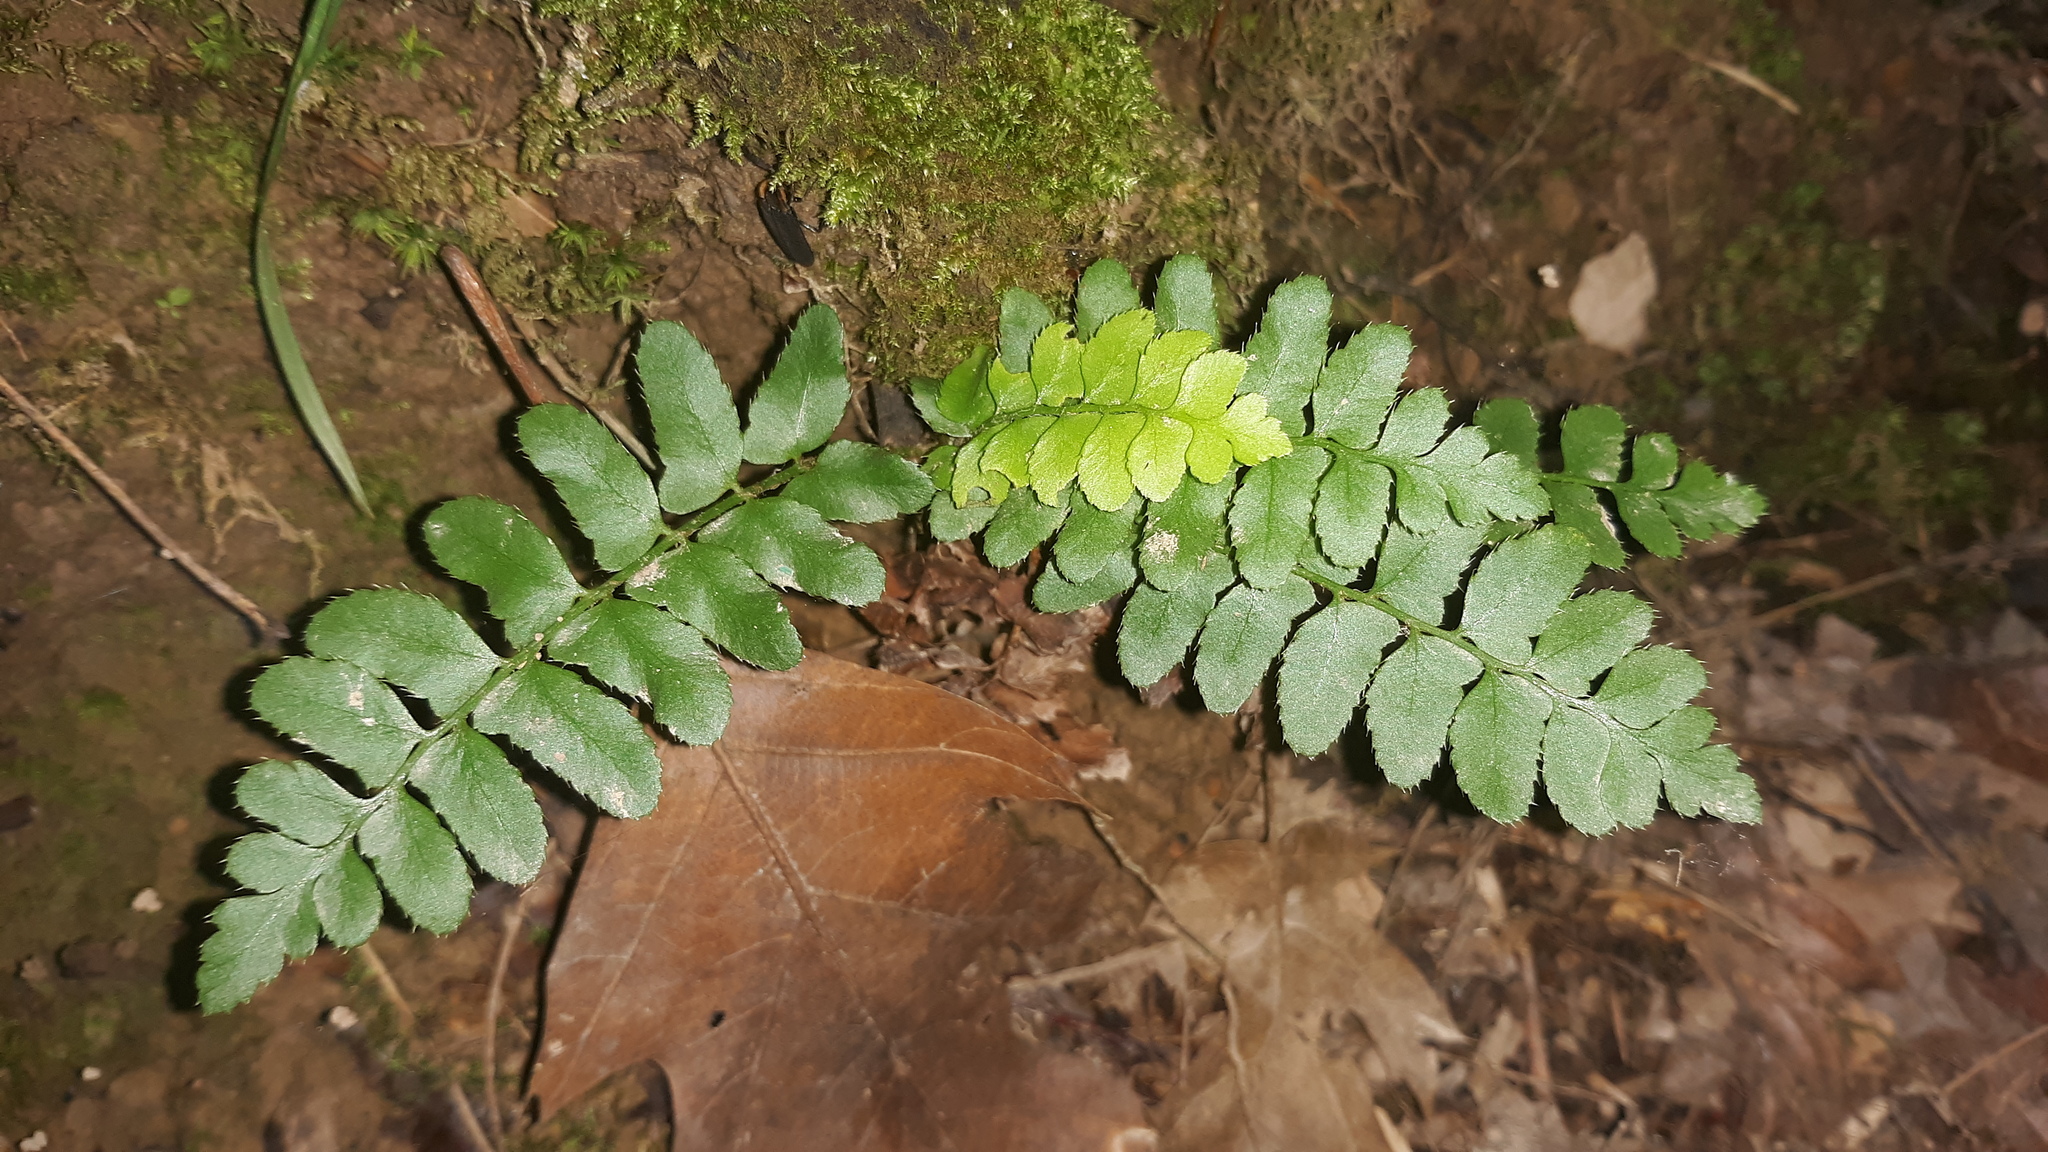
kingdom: Plantae
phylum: Tracheophyta
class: Polypodiopsida
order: Polypodiales
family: Dryopteridaceae
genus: Polystichum
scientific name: Polystichum acrostichoides
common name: Christmas fern
